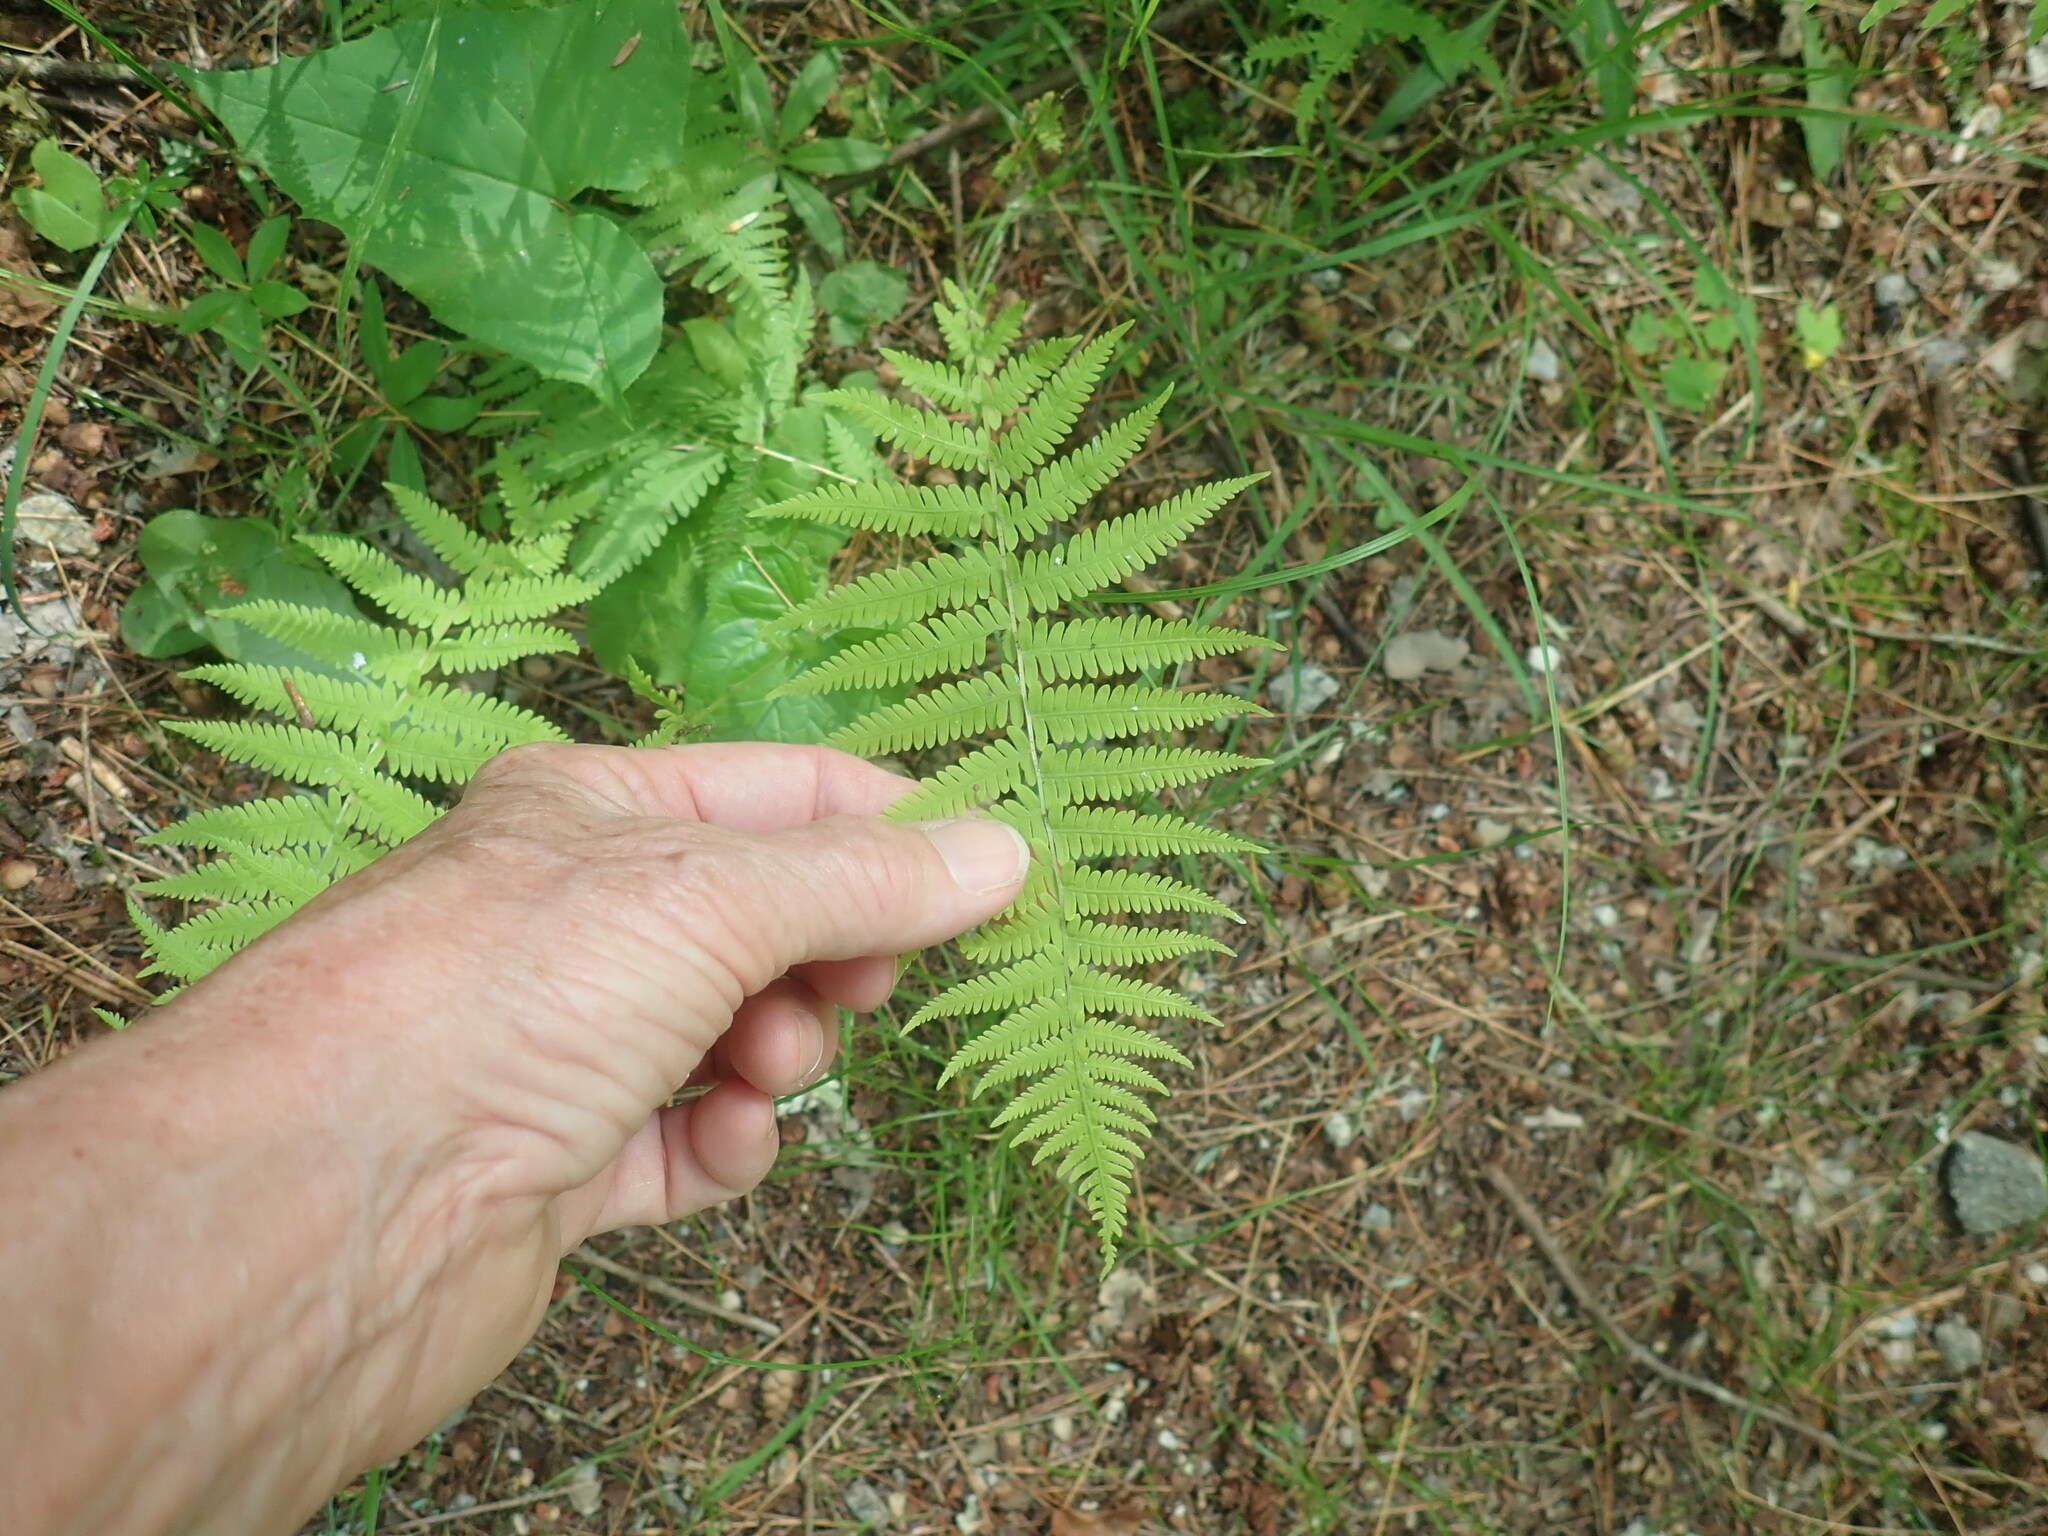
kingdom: Plantae
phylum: Tracheophyta
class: Polypodiopsida
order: Polypodiales
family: Thelypteridaceae
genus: Amauropelta
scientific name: Amauropelta noveboracensis
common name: New york fern
